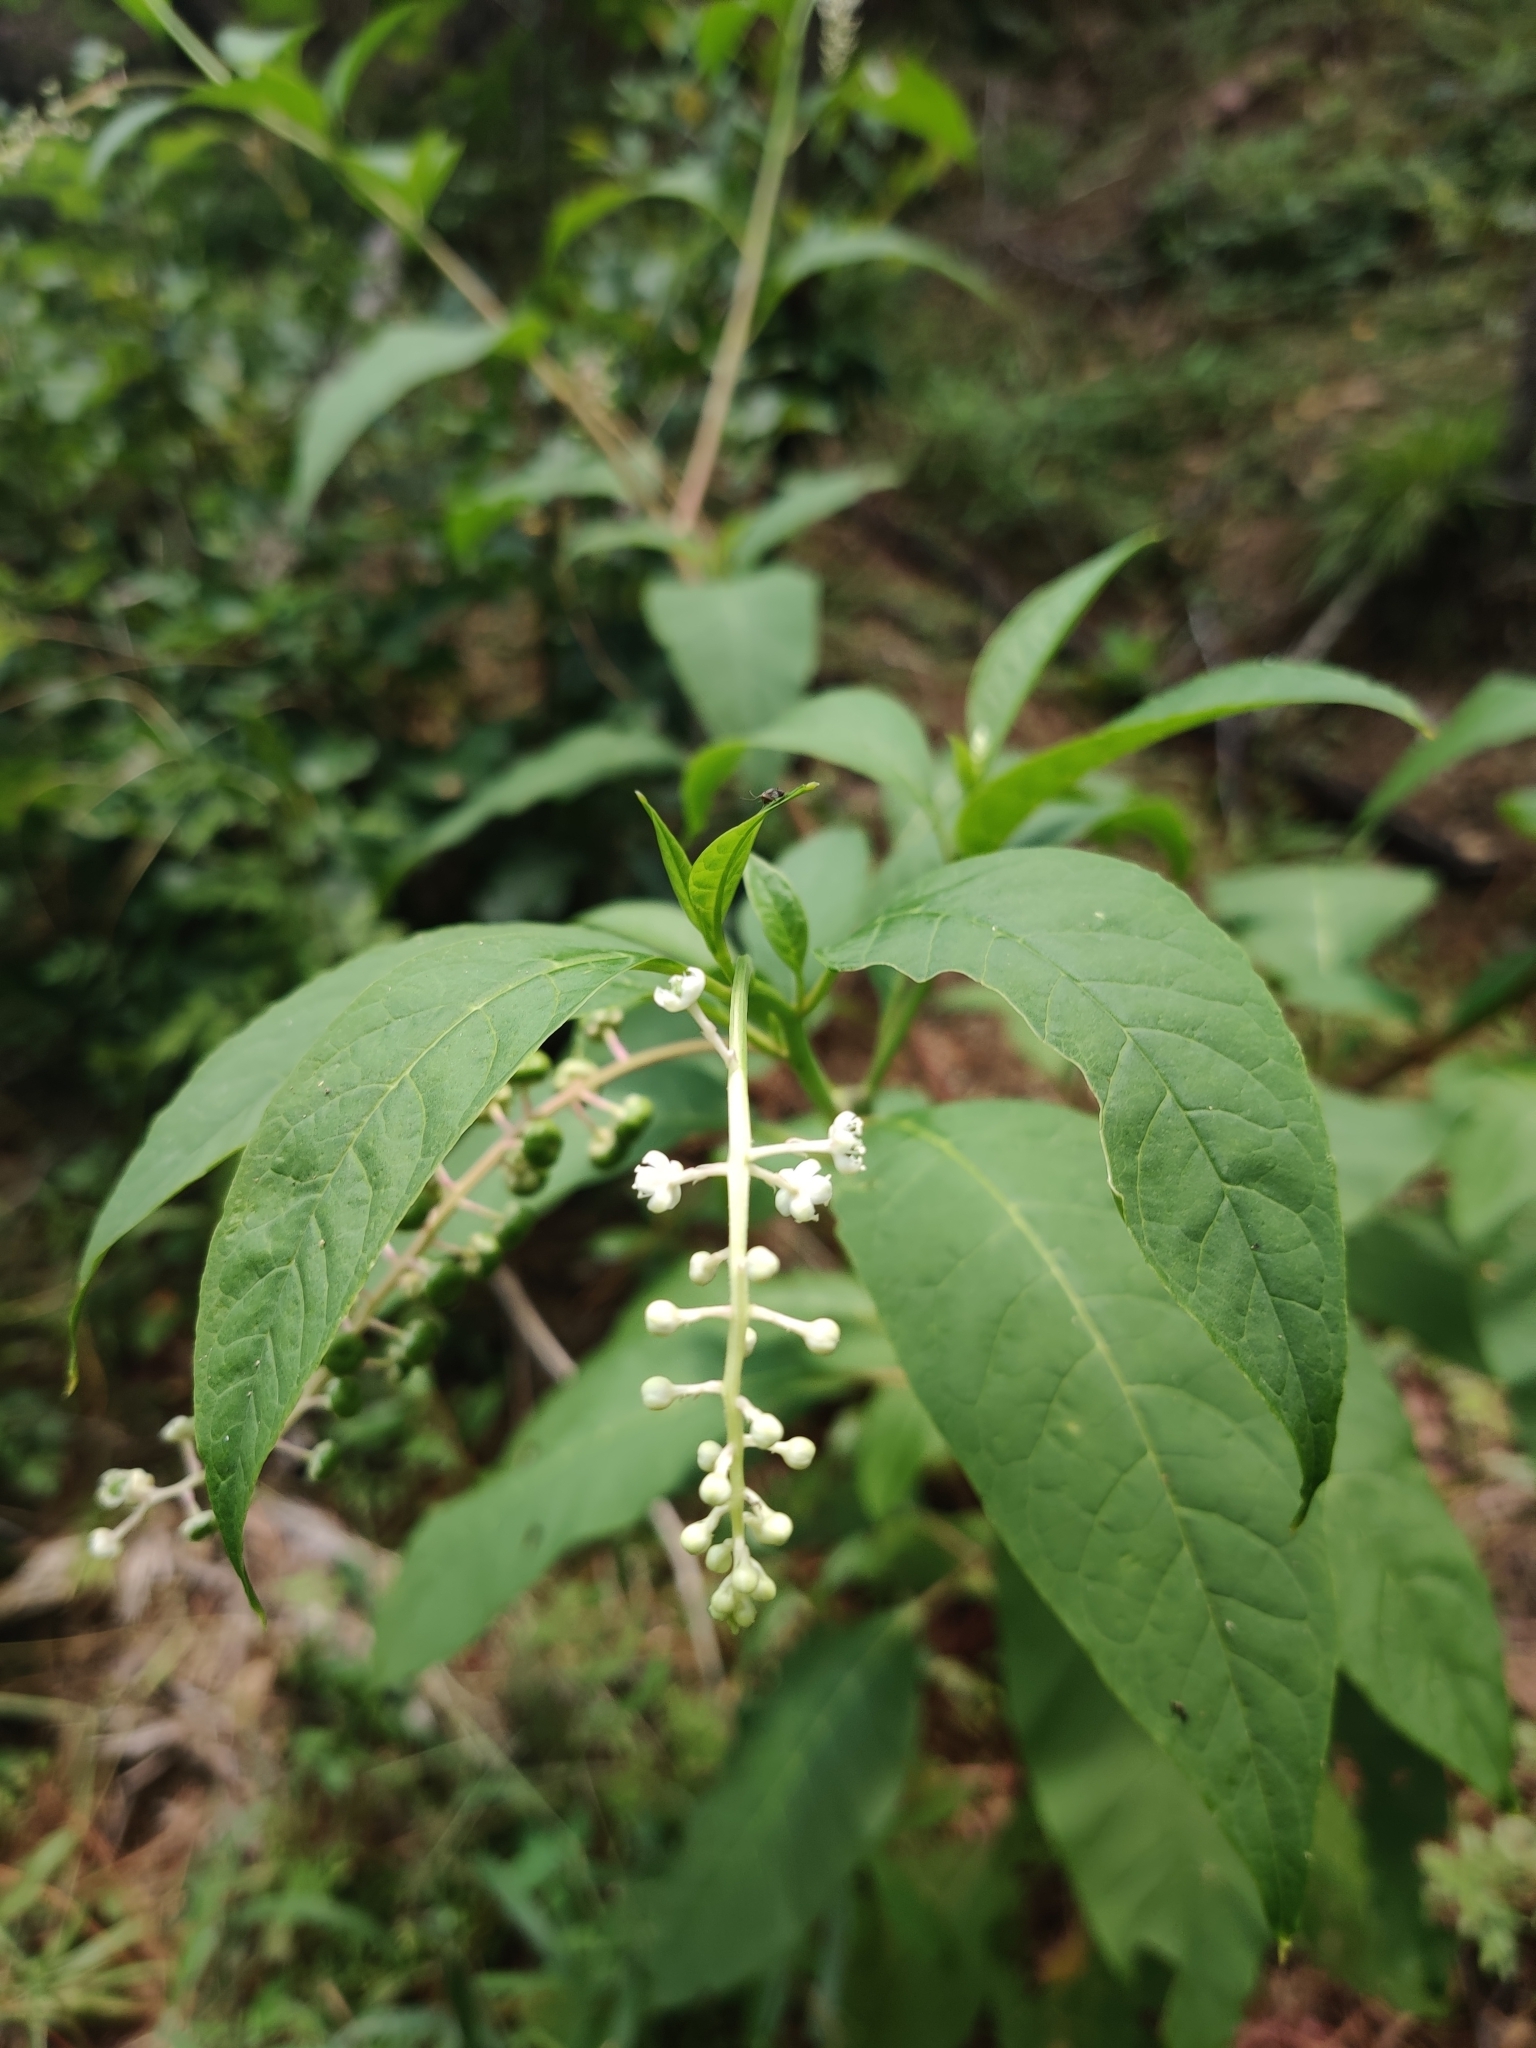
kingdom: Plantae
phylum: Tracheophyta
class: Magnoliopsida
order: Caryophyllales
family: Phytolaccaceae
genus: Phytolacca
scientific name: Phytolacca americana
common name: American pokeweed
